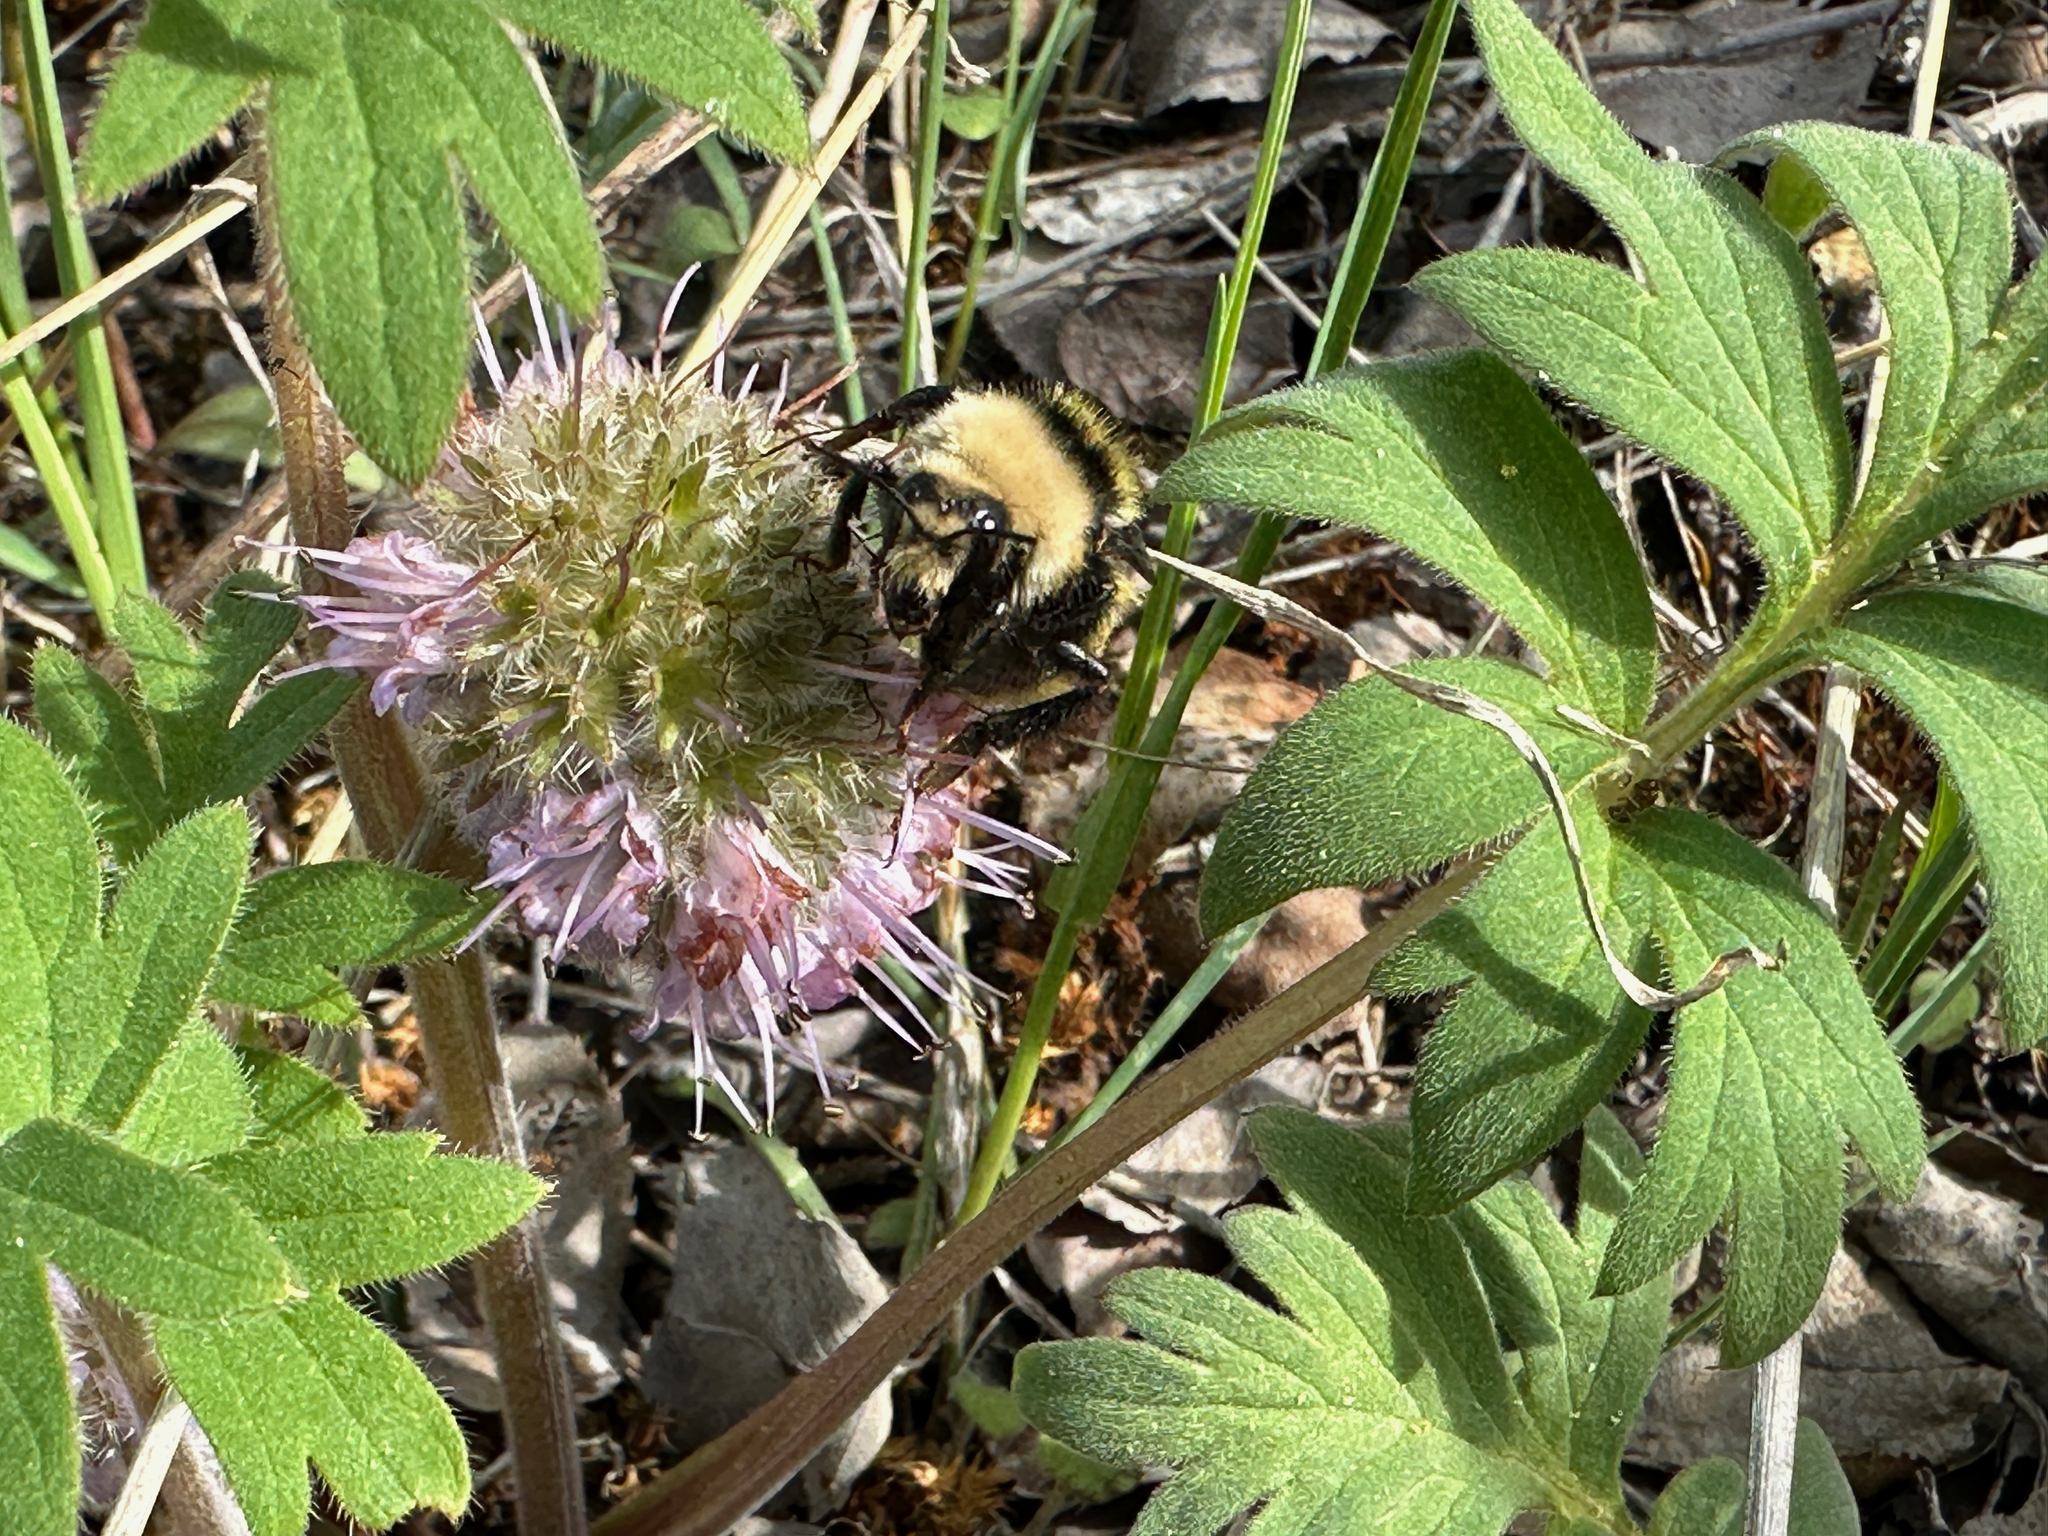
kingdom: Animalia
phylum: Arthropoda
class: Insecta
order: Hymenoptera
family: Apidae
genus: Bombus
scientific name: Bombus appositus
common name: White-shouldered bumble bee
